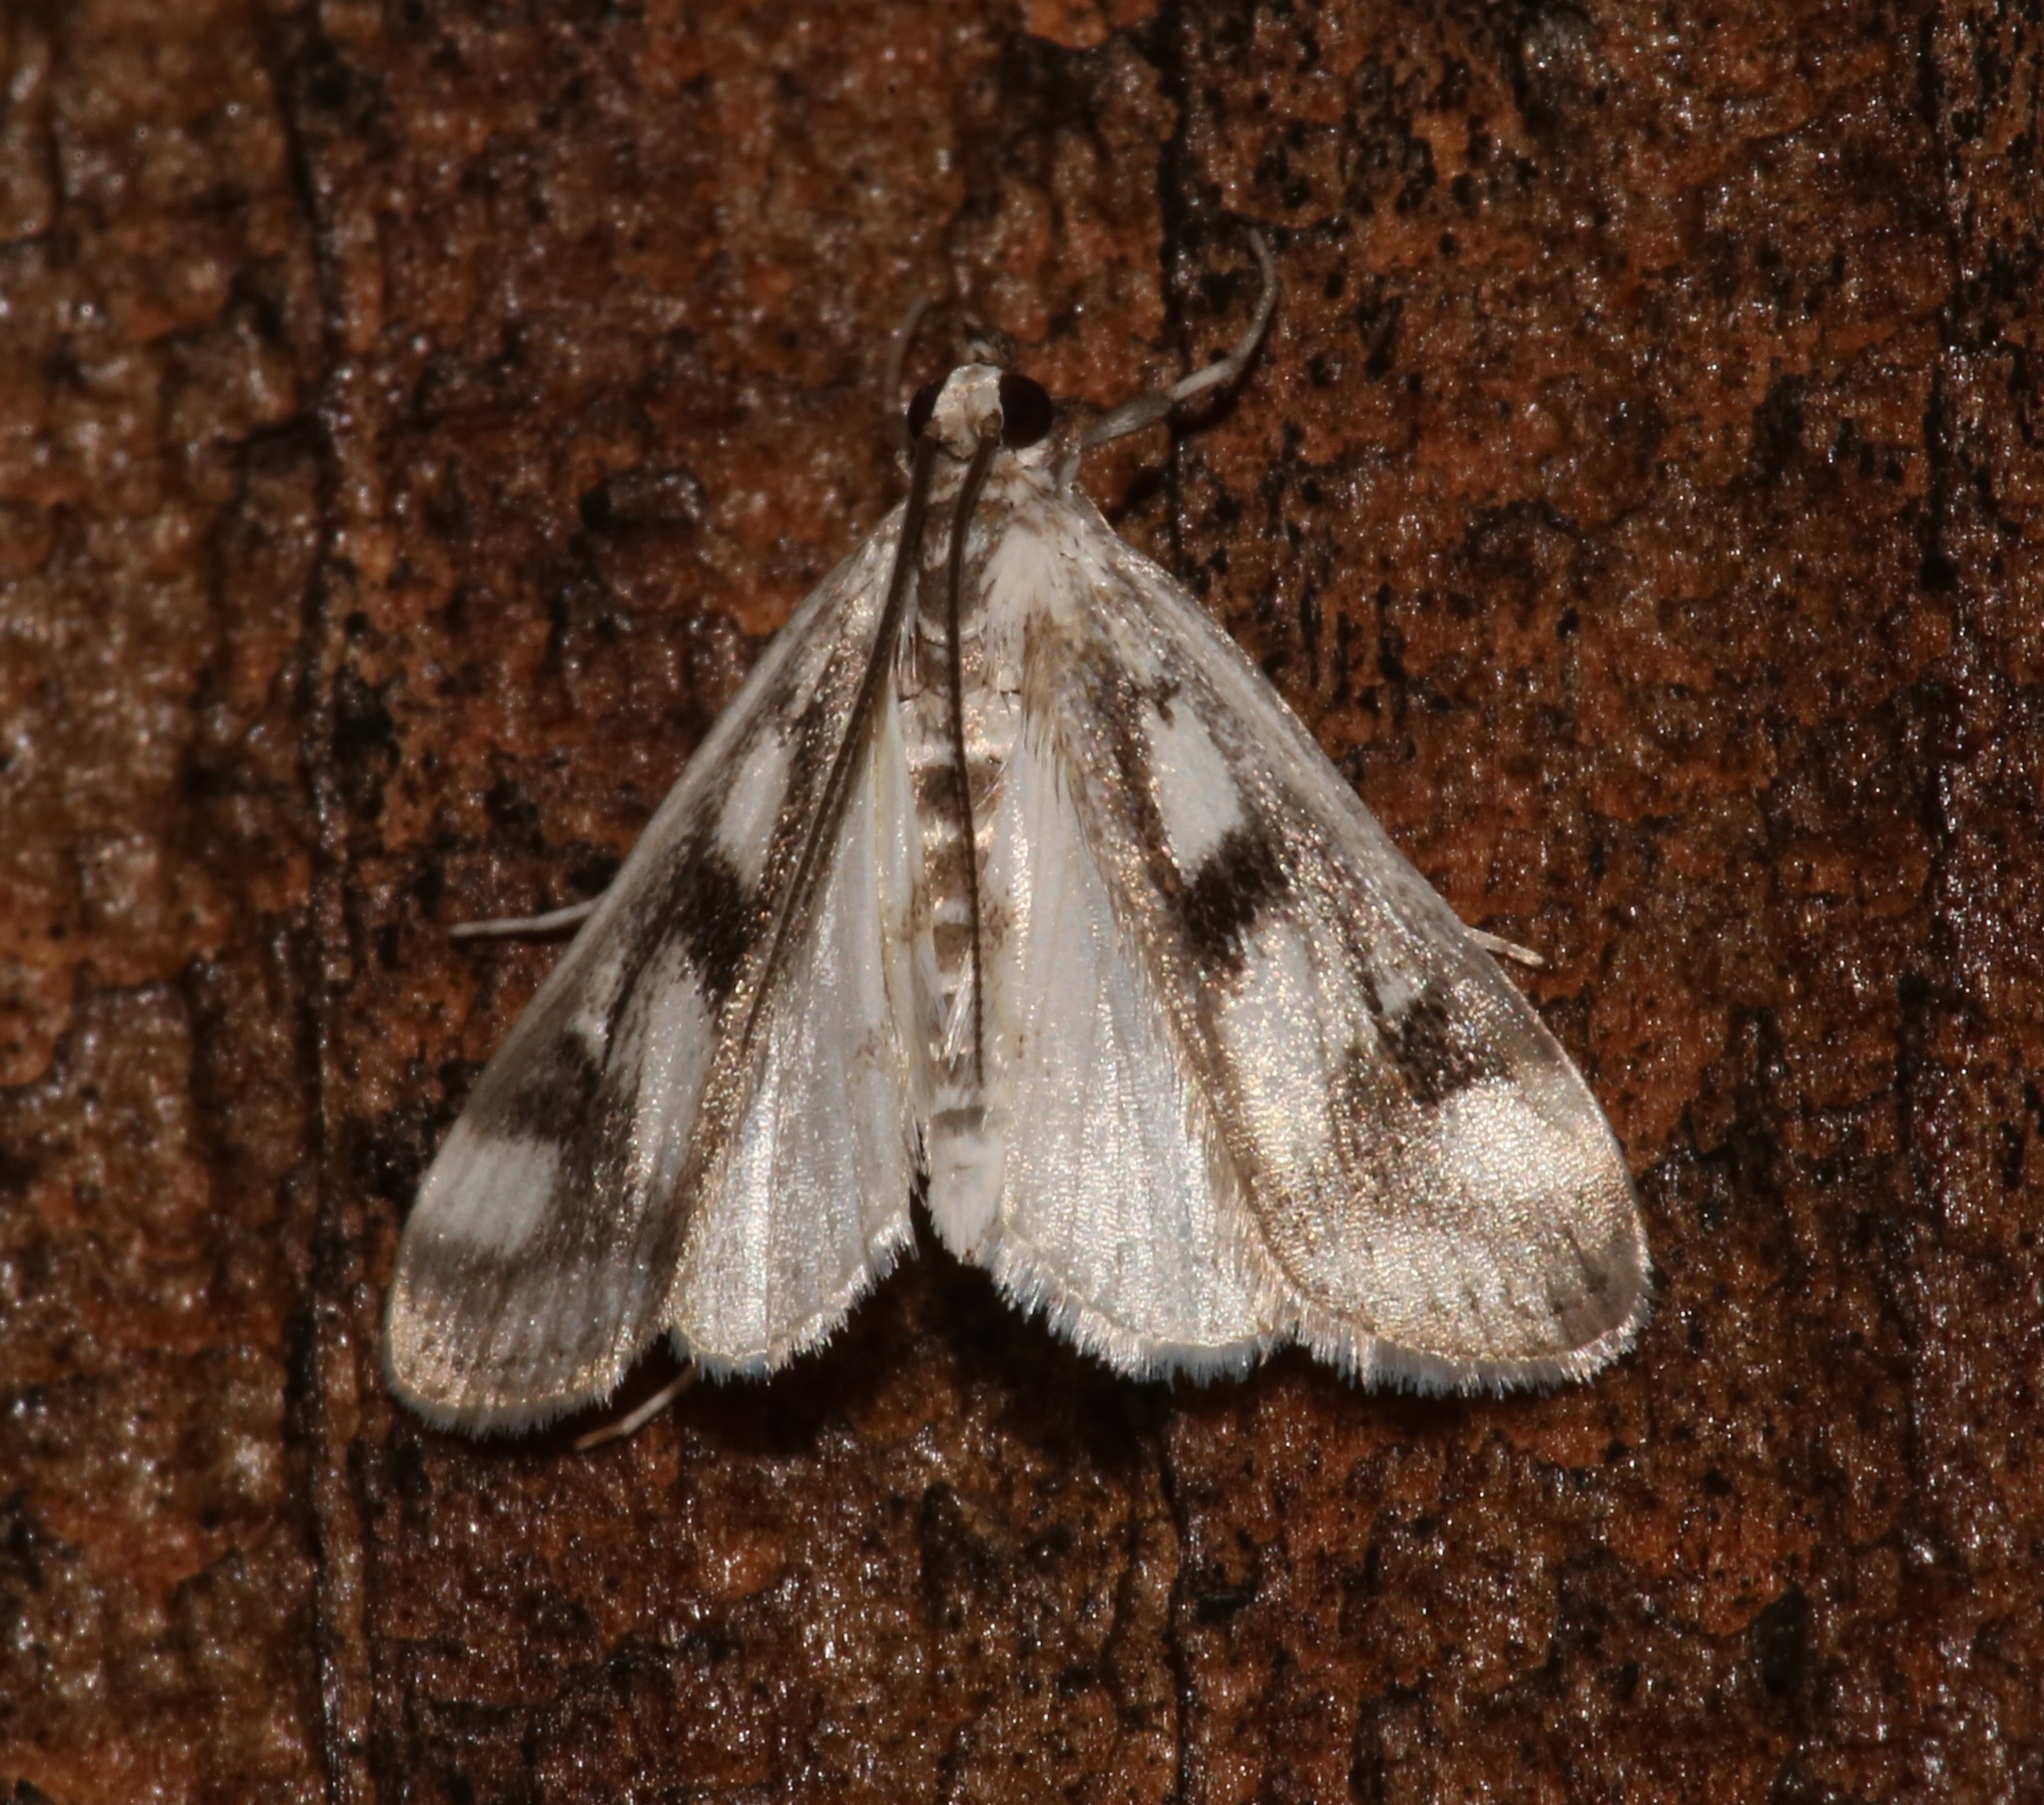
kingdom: Animalia
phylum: Arthropoda
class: Insecta
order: Lepidoptera
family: Crambidae
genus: Parapoynx
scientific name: Parapoynx maculalis
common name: Polymorphic pondweed moth
